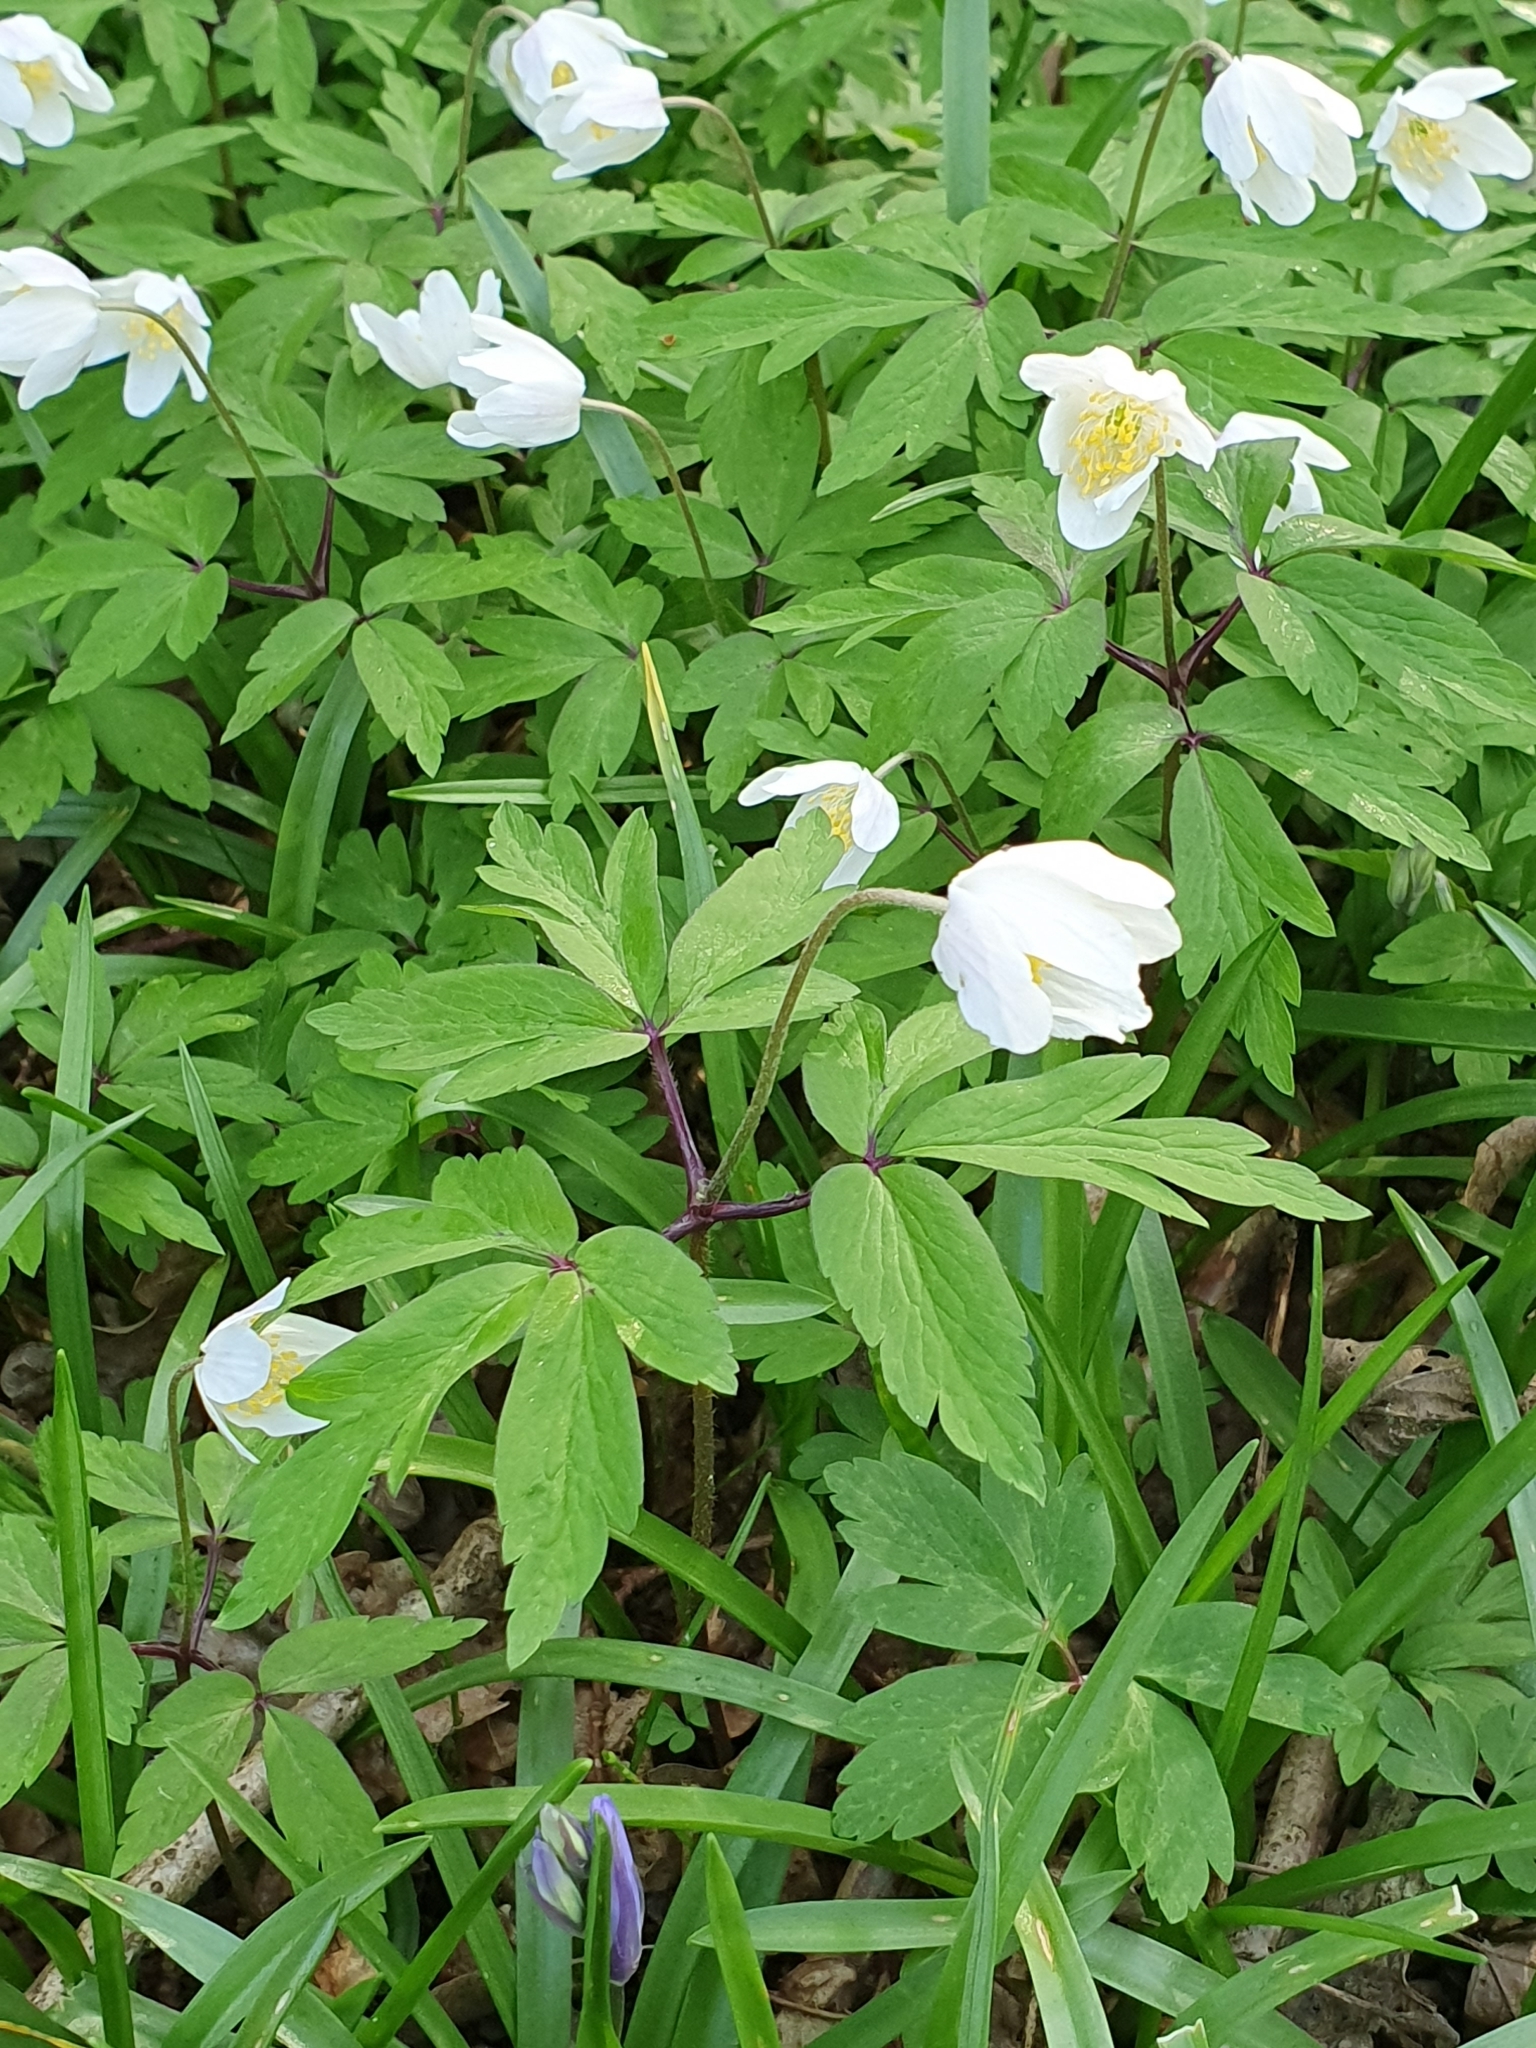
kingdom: Plantae
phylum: Tracheophyta
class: Magnoliopsida
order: Ranunculales
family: Ranunculaceae
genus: Anemone
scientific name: Anemone nemorosa
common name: Wood anemone
